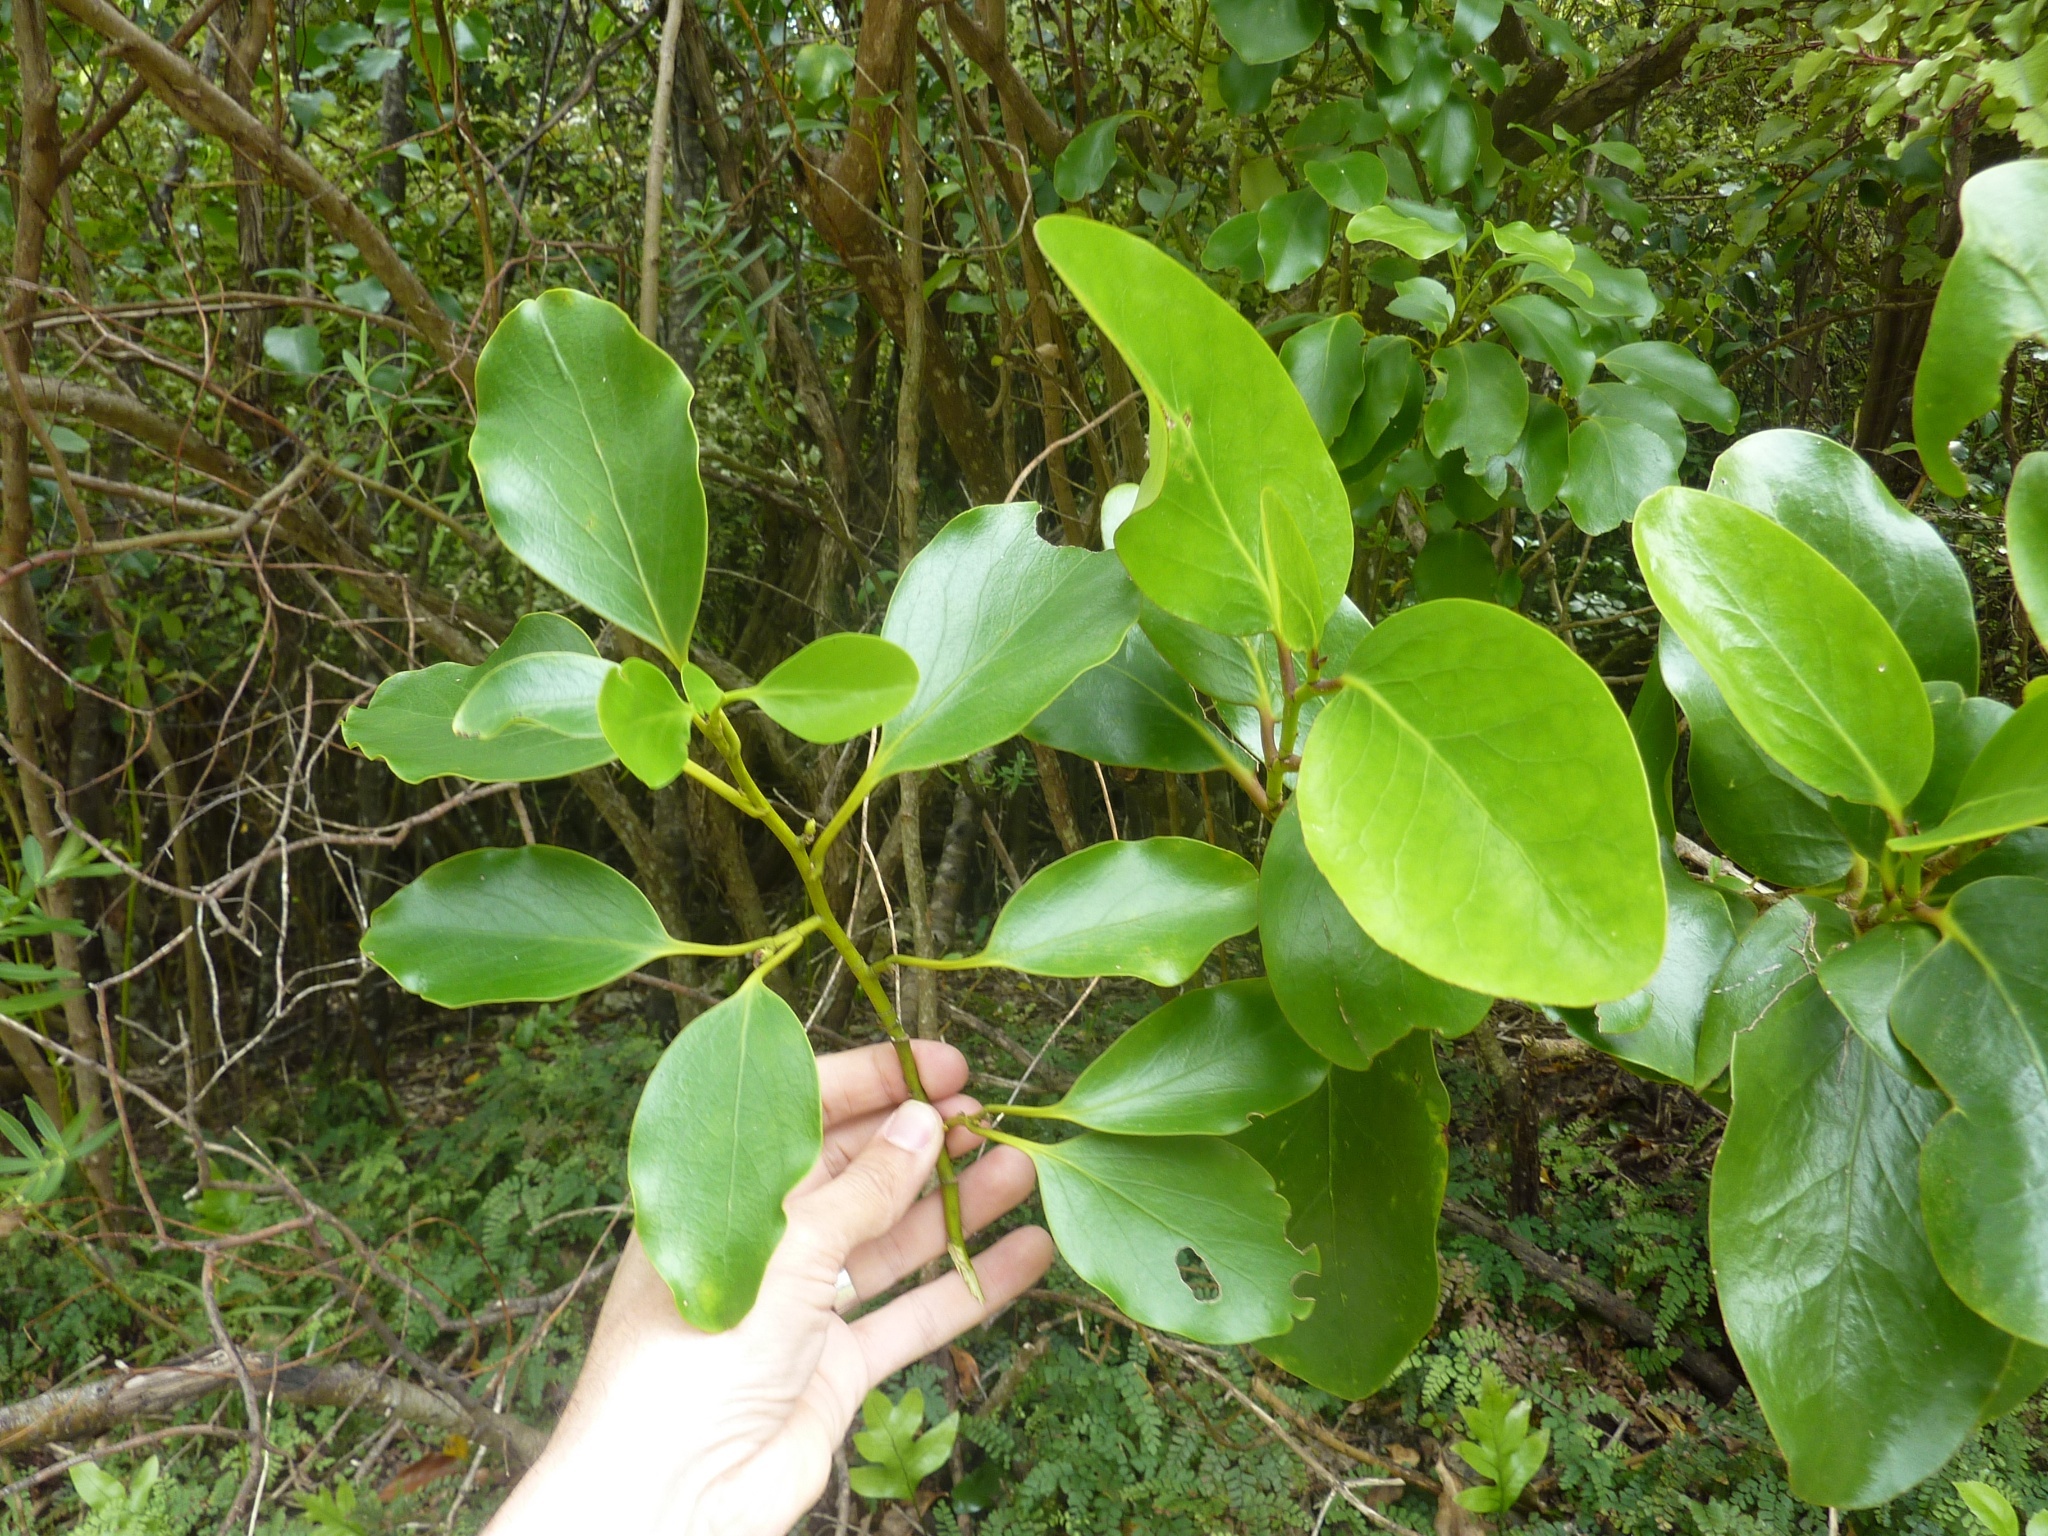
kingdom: Plantae
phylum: Tracheophyta
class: Magnoliopsida
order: Apiales
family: Griseliniaceae
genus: Griselinia
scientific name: Griselinia lucida
